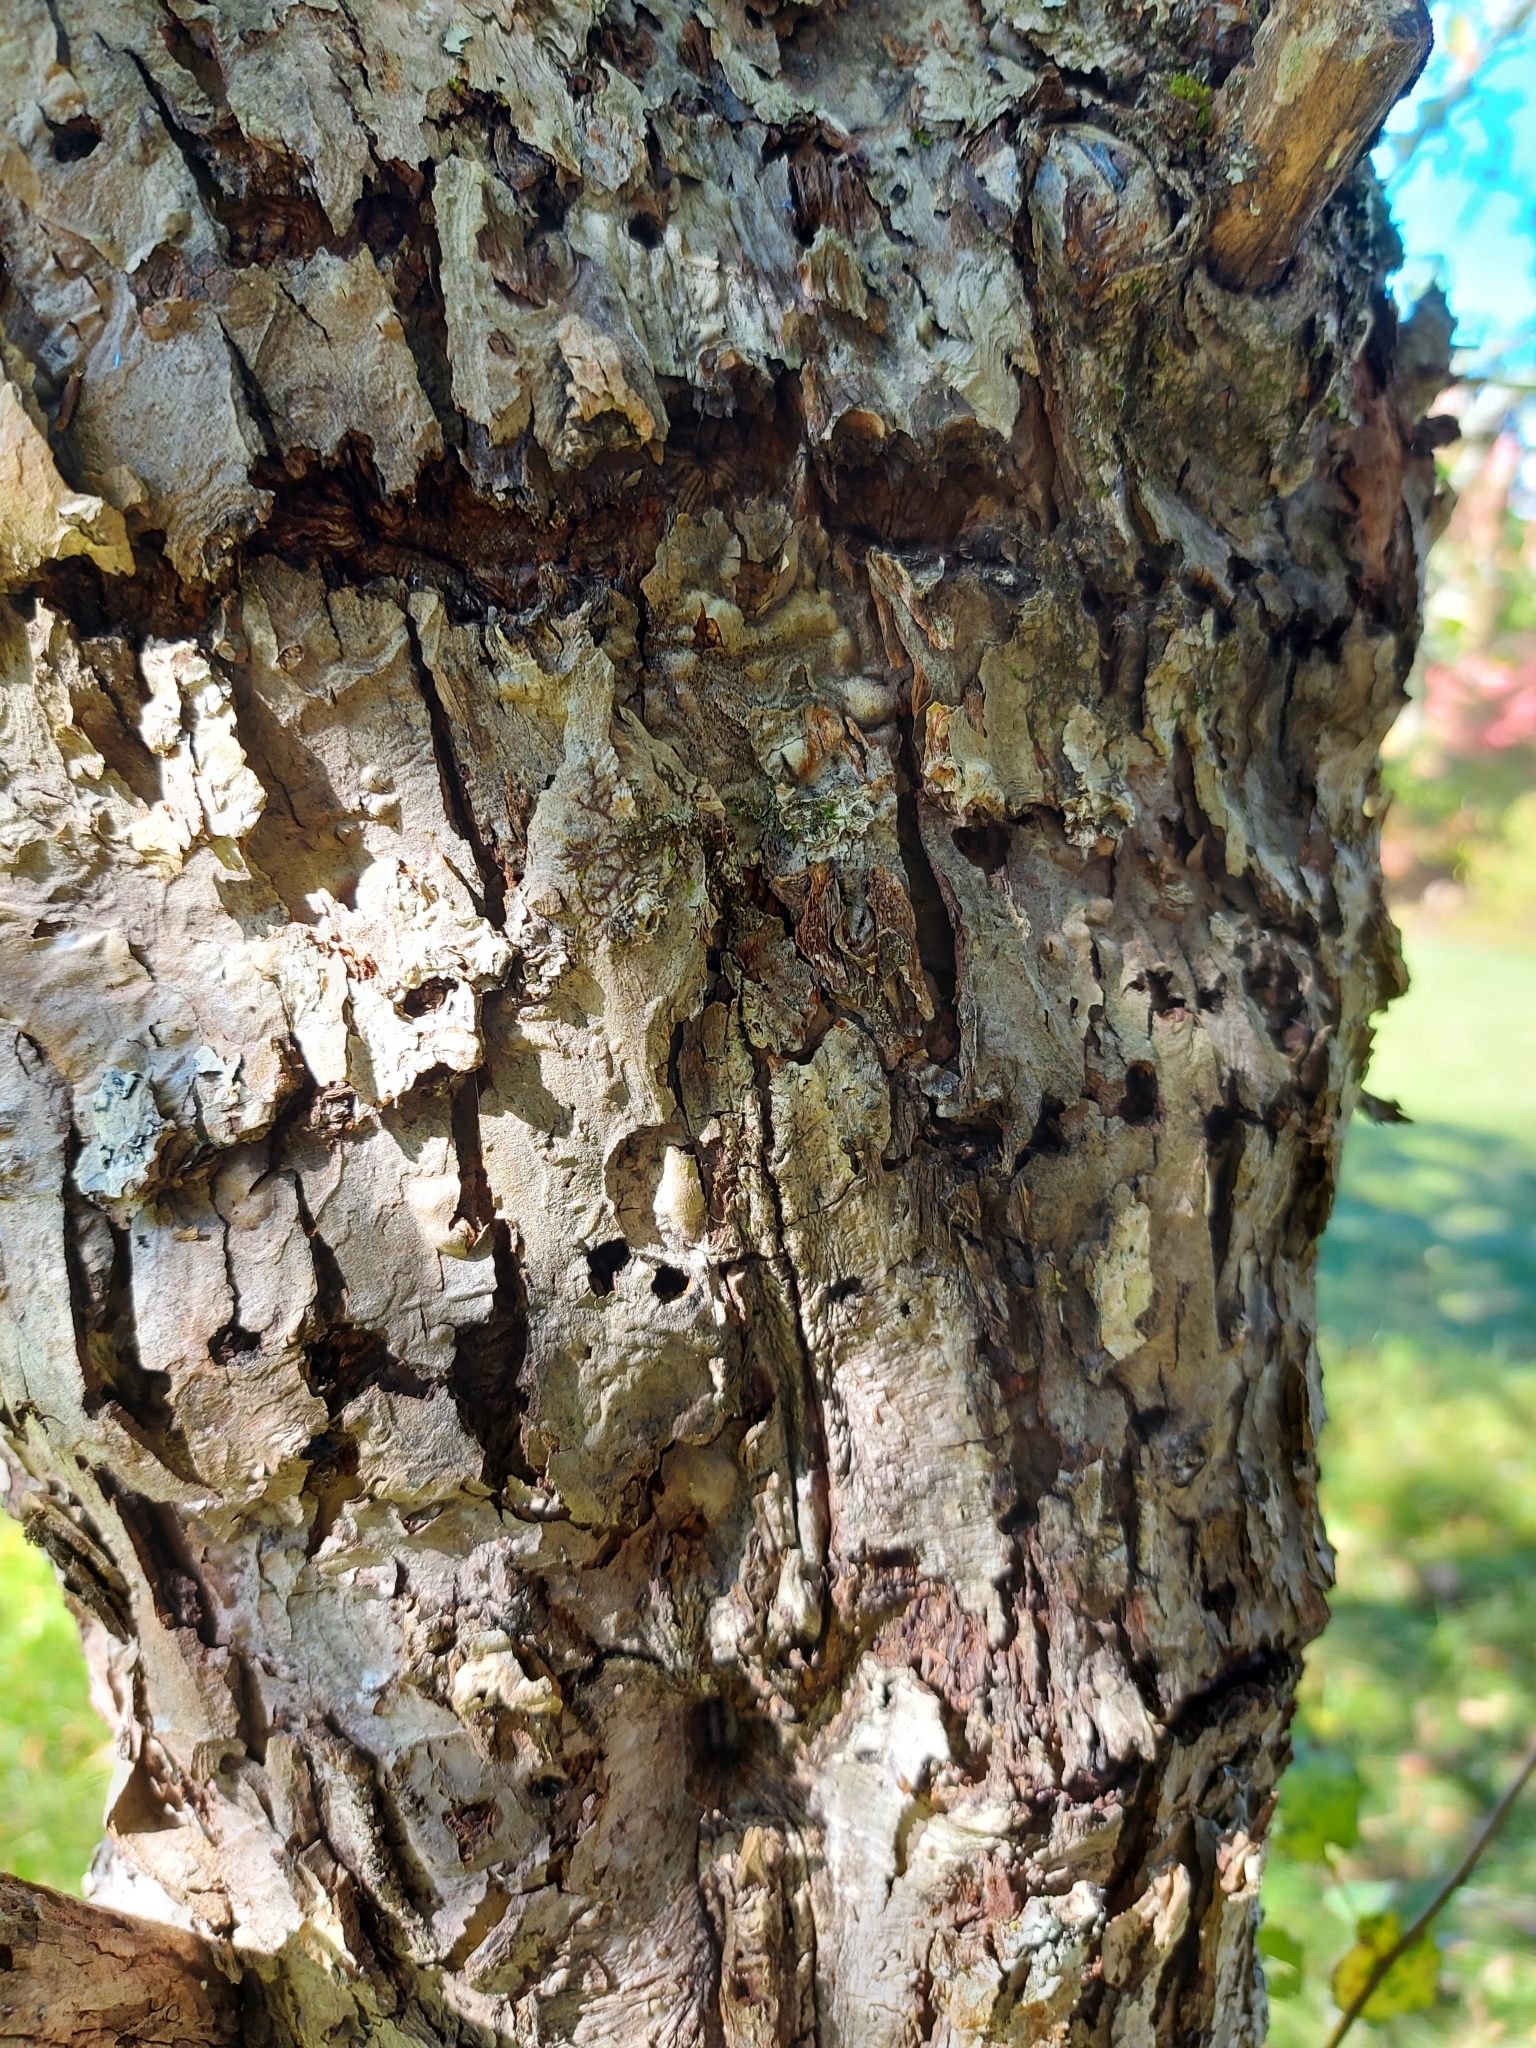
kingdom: Animalia
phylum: Chordata
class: Aves
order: Piciformes
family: Picidae
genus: Sphyrapicus
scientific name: Sphyrapicus varius
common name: Yellow-bellied sapsucker
